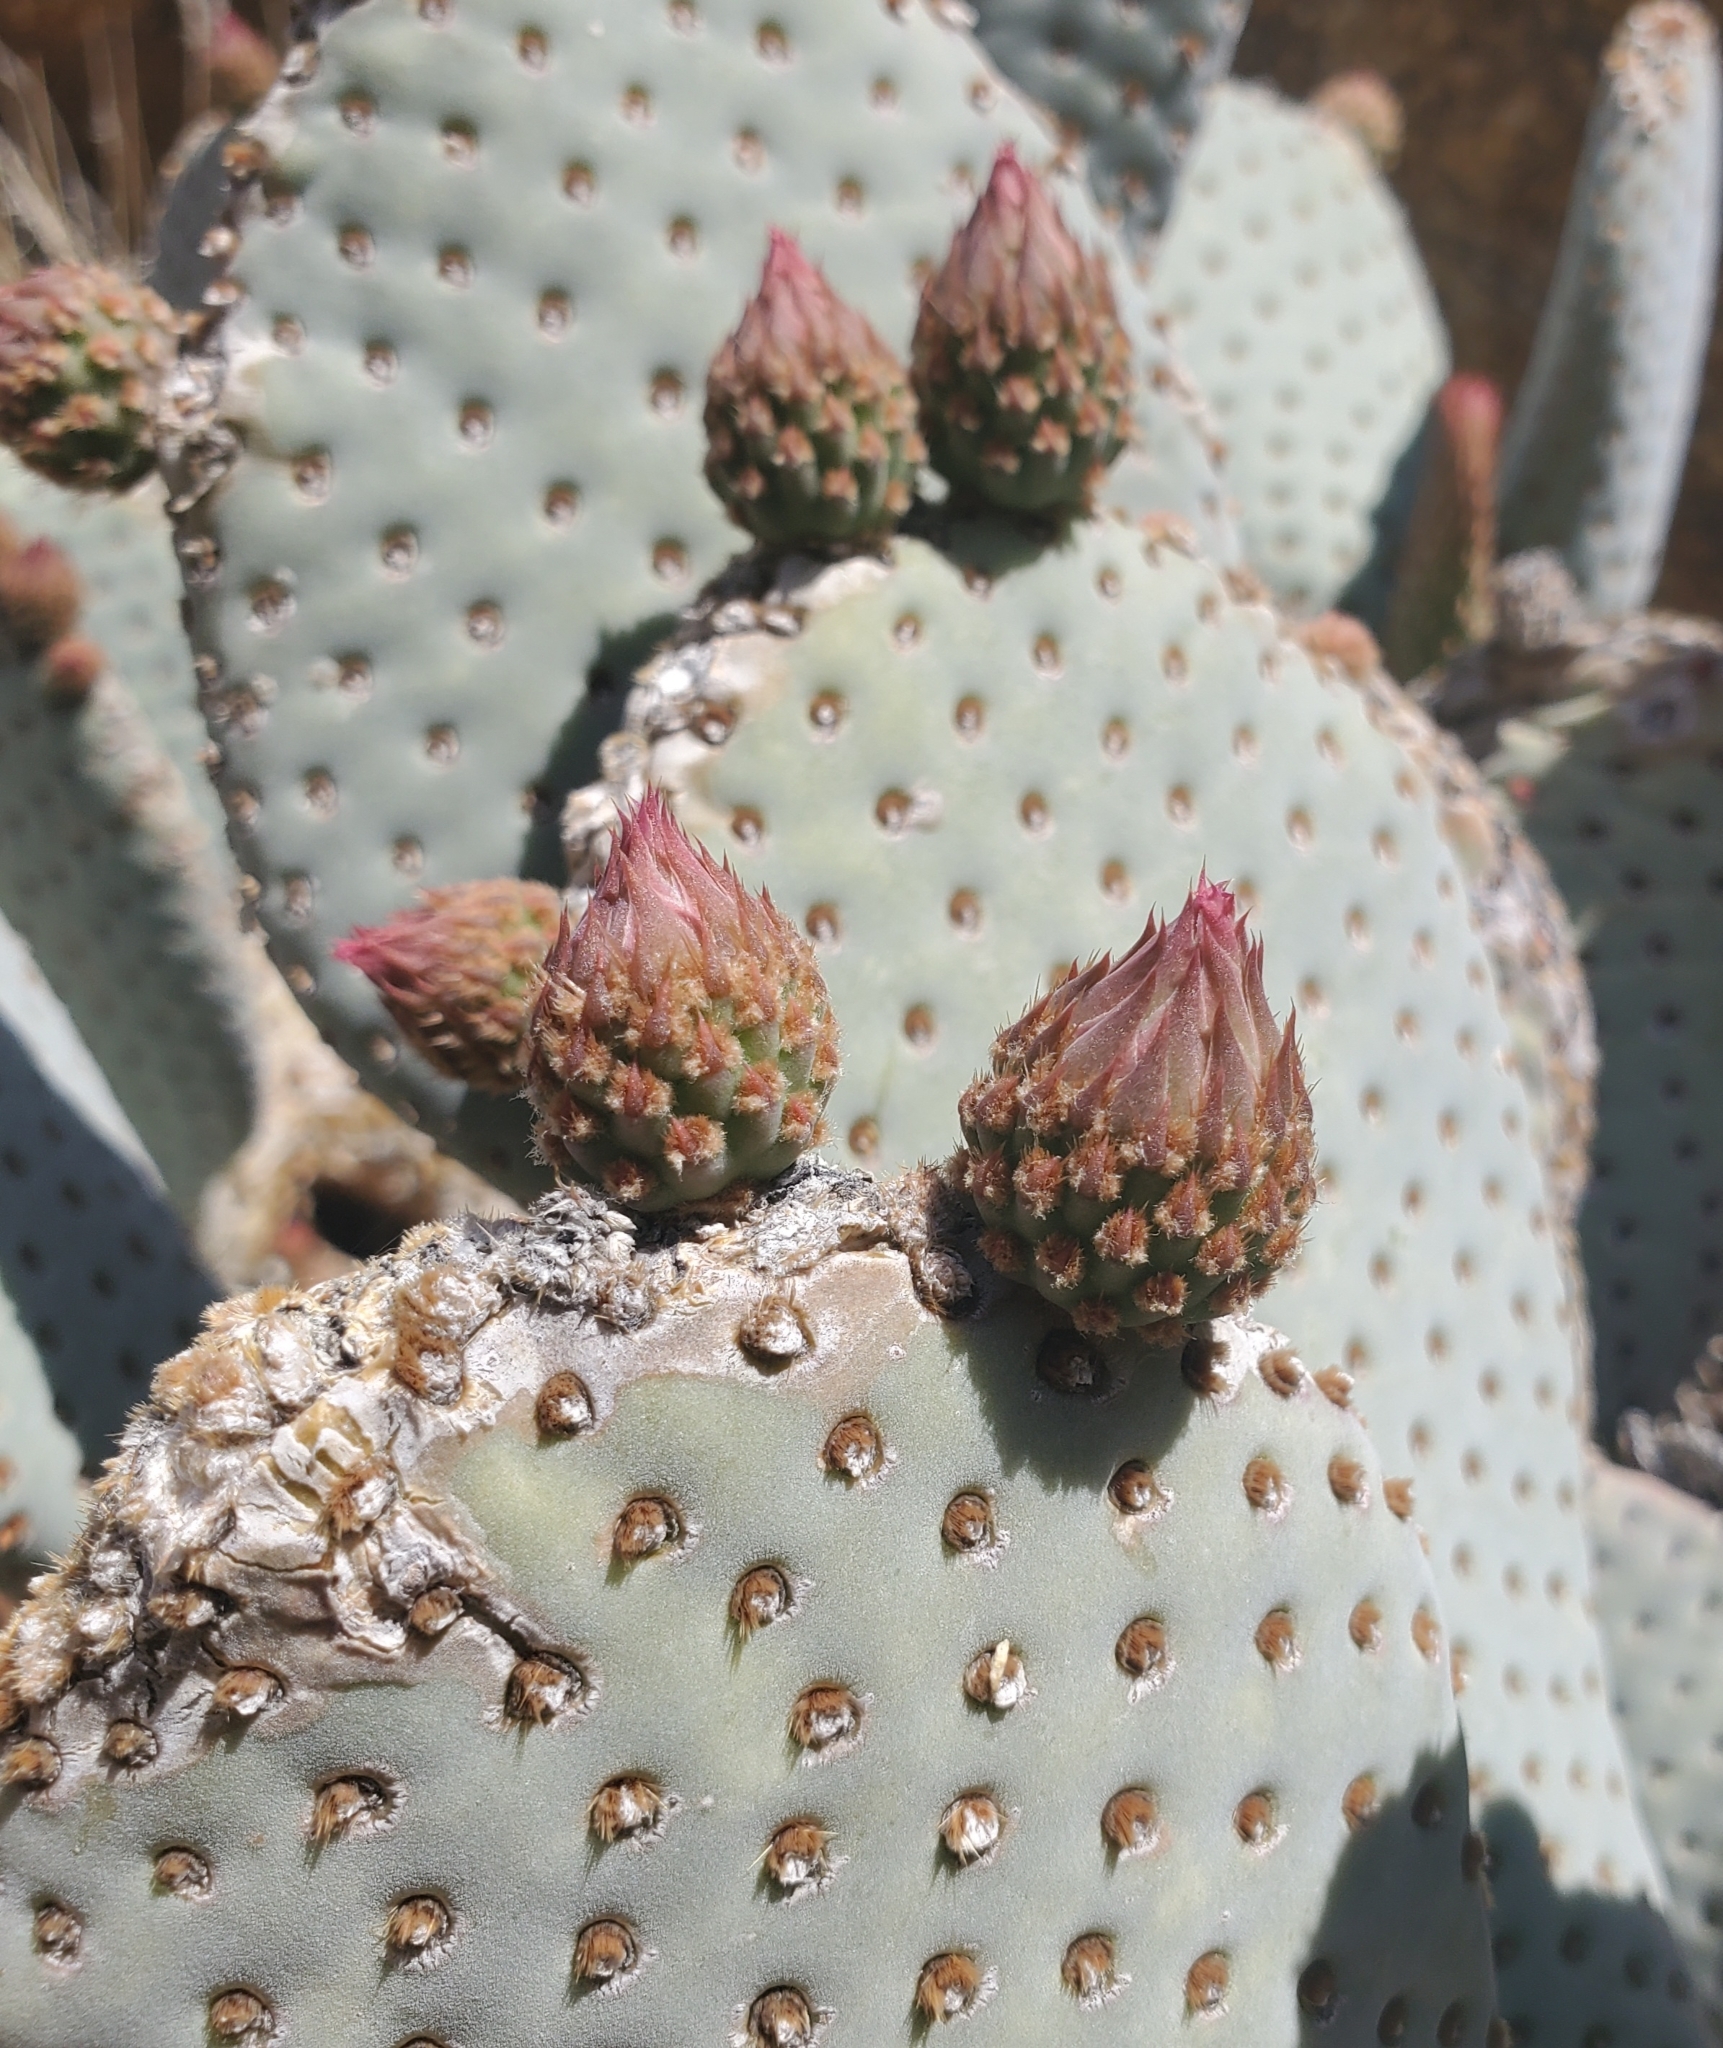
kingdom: Plantae
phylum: Tracheophyta
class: Magnoliopsida
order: Caryophyllales
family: Cactaceae
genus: Opuntia
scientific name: Opuntia basilaris
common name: Beavertail prickly-pear
